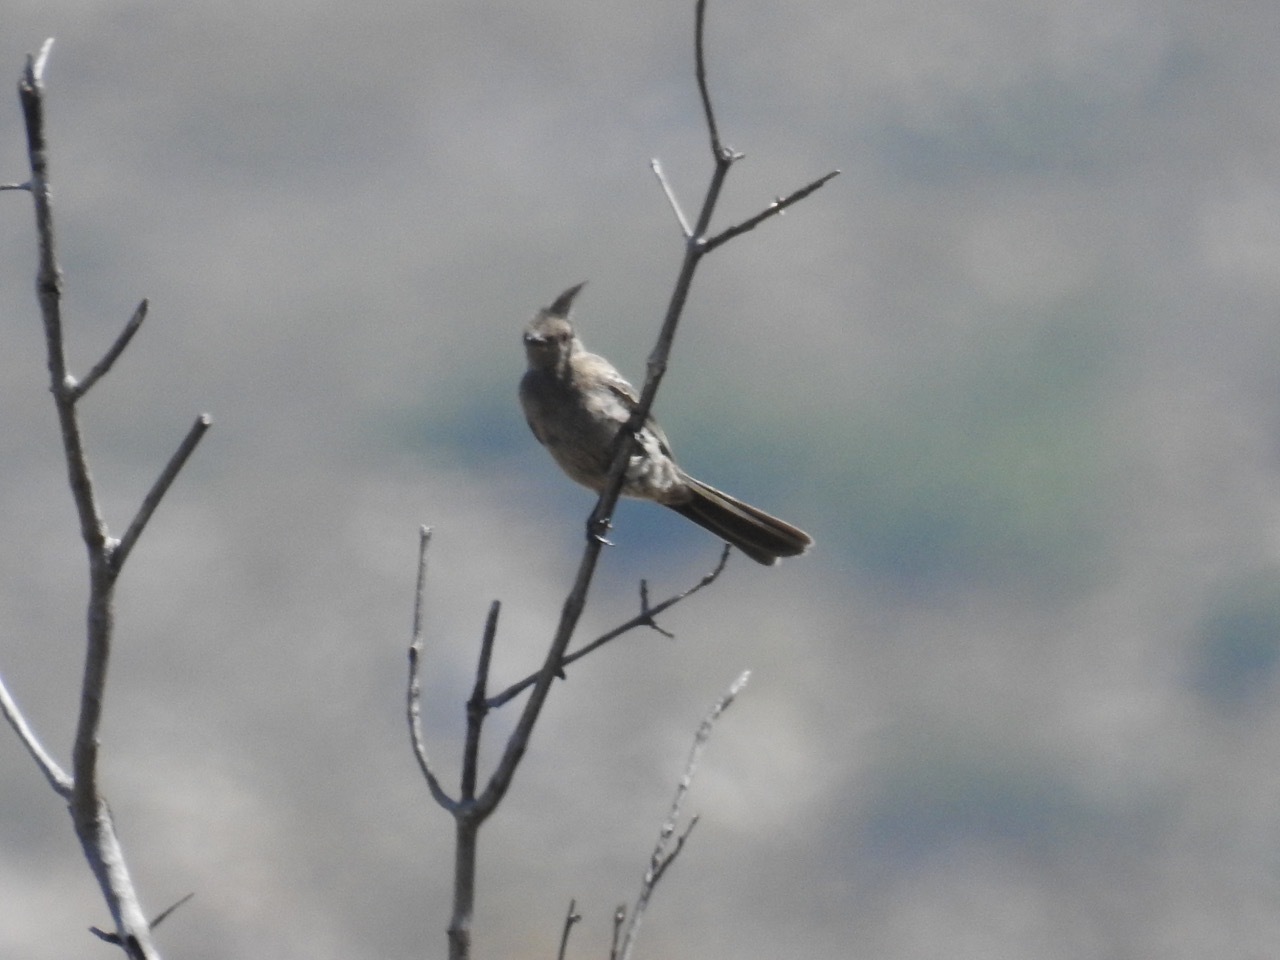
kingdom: Animalia
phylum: Chordata
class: Aves
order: Passeriformes
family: Ptilogonatidae
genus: Phainopepla
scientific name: Phainopepla nitens
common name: Phainopepla
